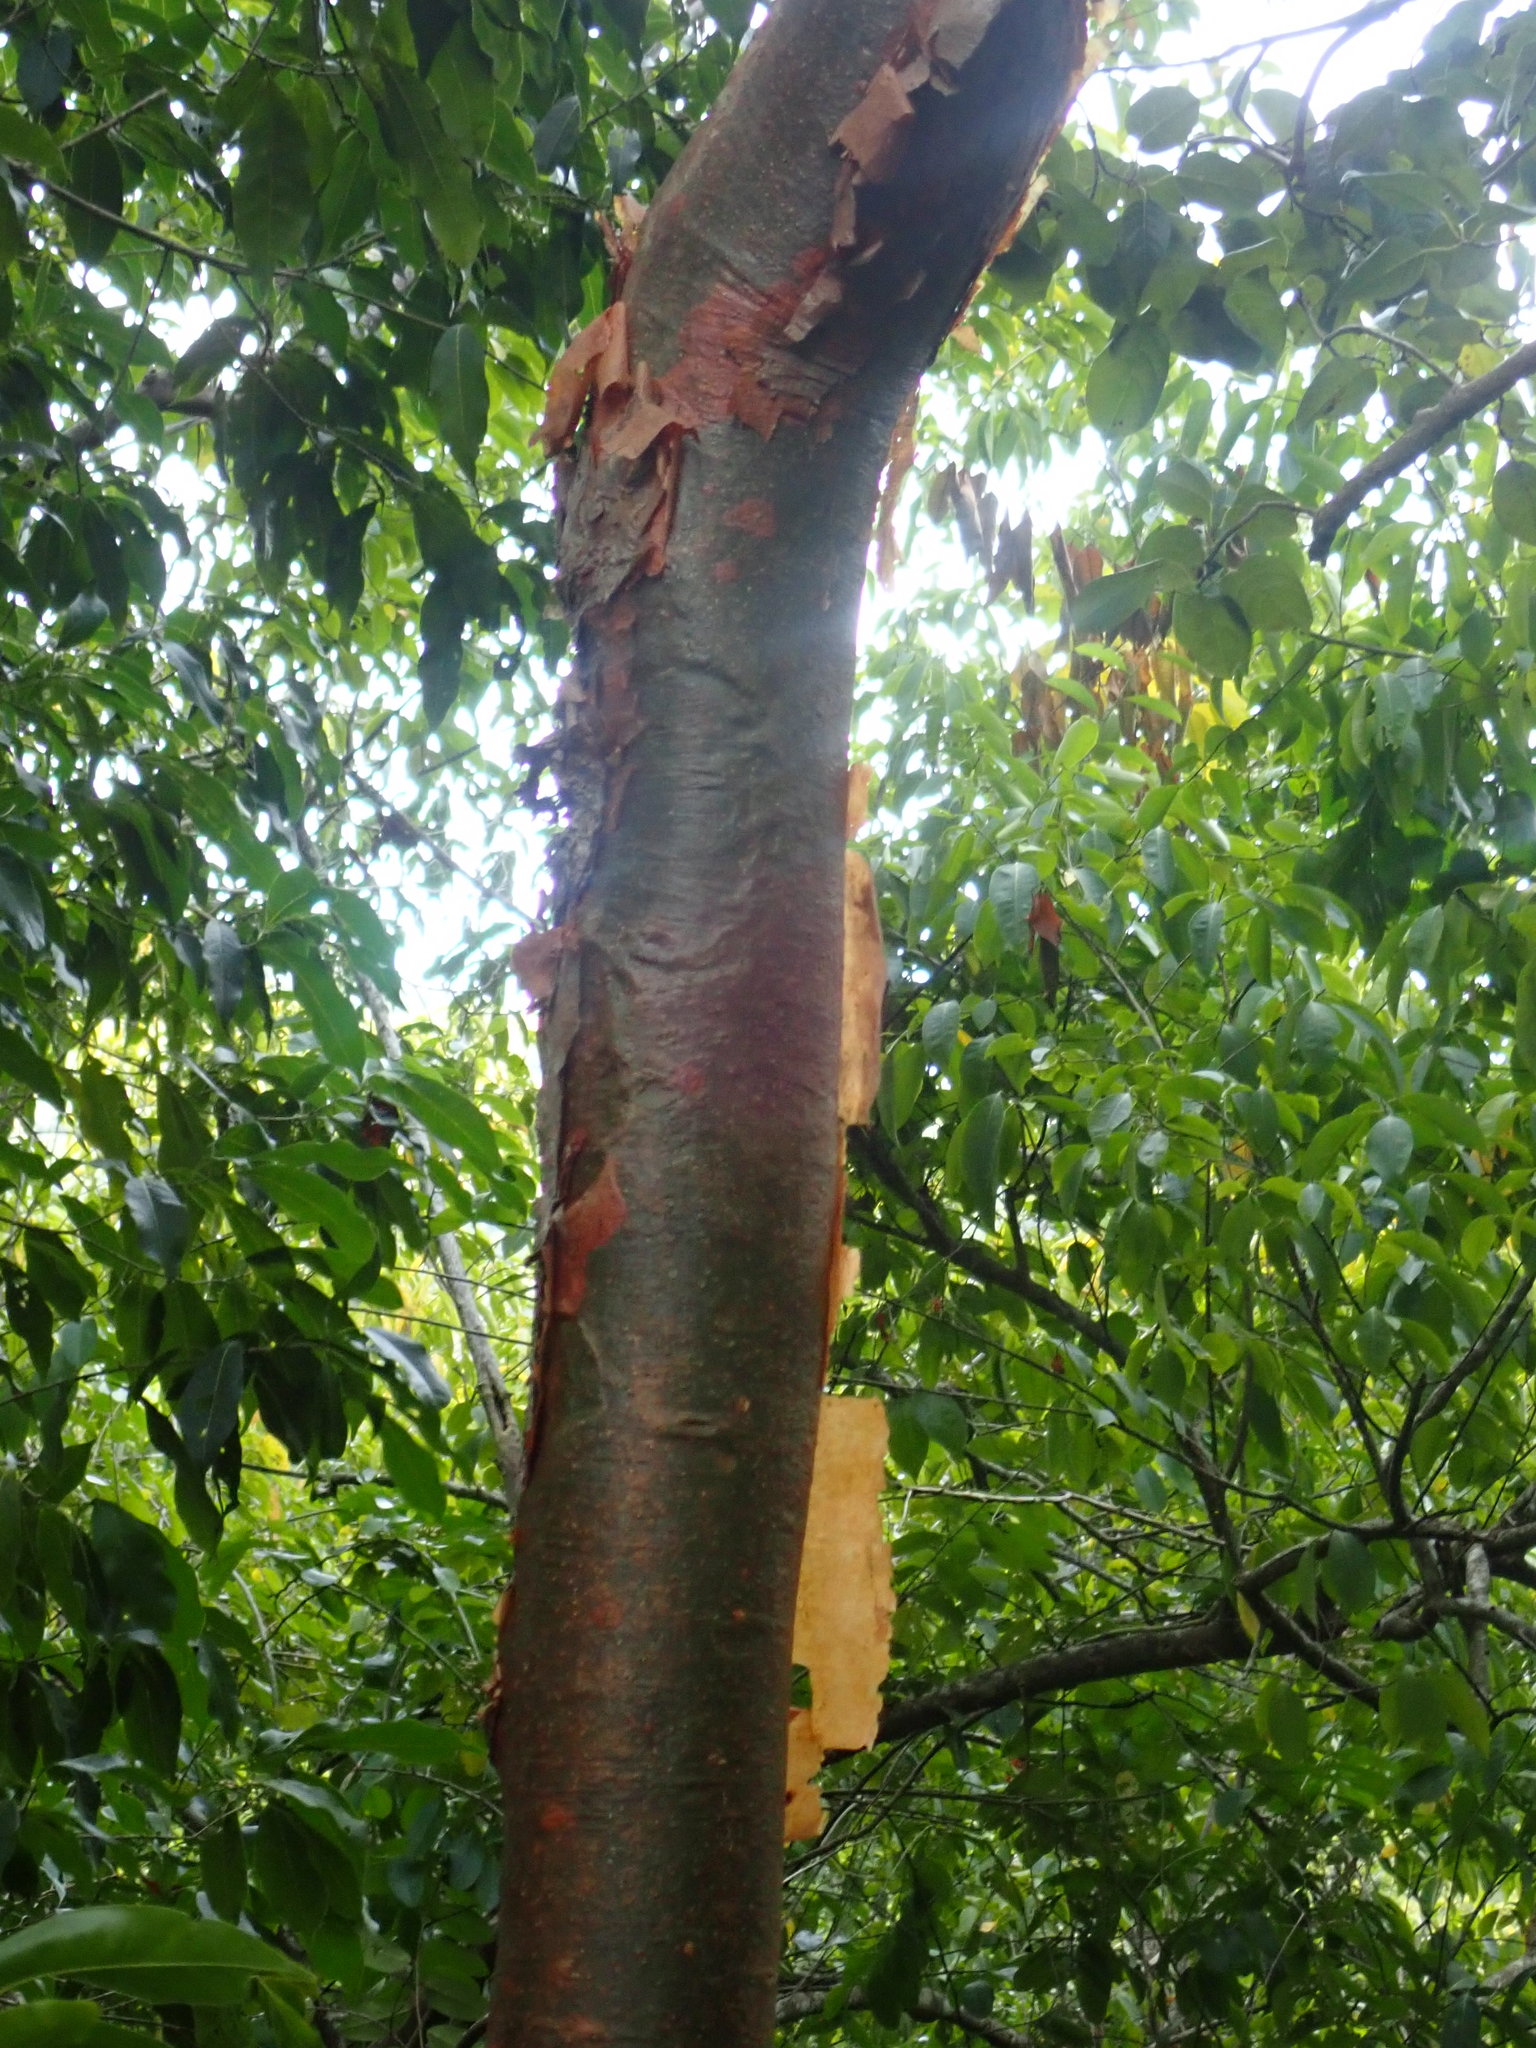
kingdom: Plantae
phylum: Tracheophyta
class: Magnoliopsida
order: Sapindales
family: Burseraceae
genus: Bursera
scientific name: Bursera simaruba
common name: Turpentine tree
